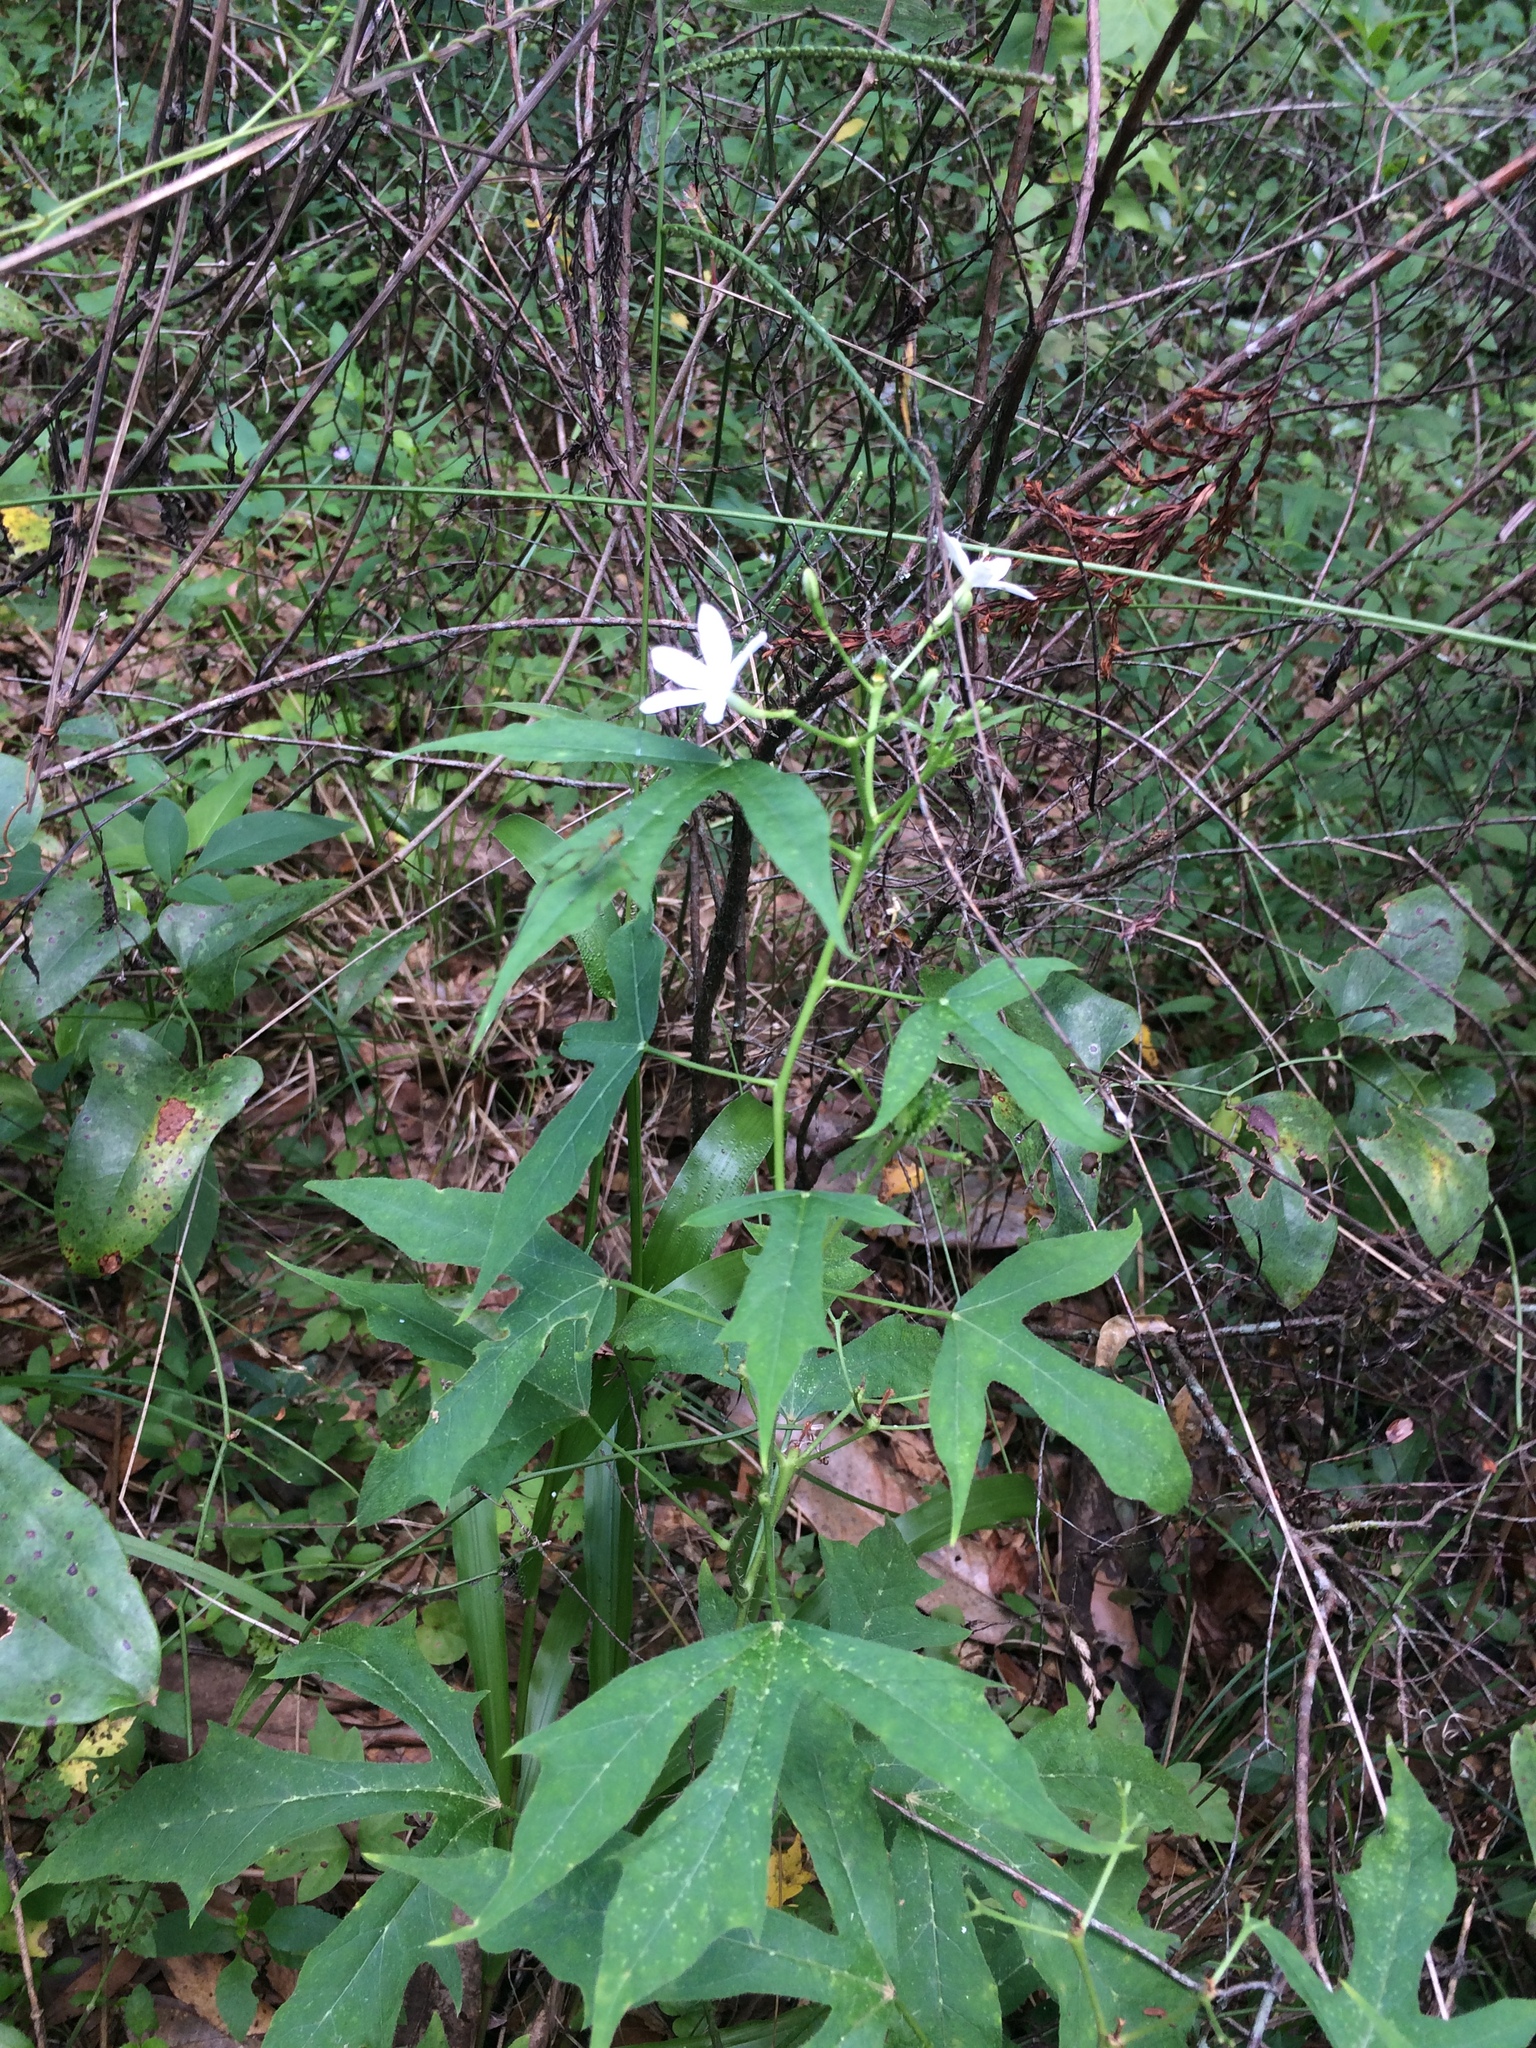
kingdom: Plantae
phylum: Tracheophyta
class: Magnoliopsida
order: Malpighiales
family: Euphorbiaceae
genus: Cnidoscolus
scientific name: Cnidoscolus stimulosus
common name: Bull-nettle
